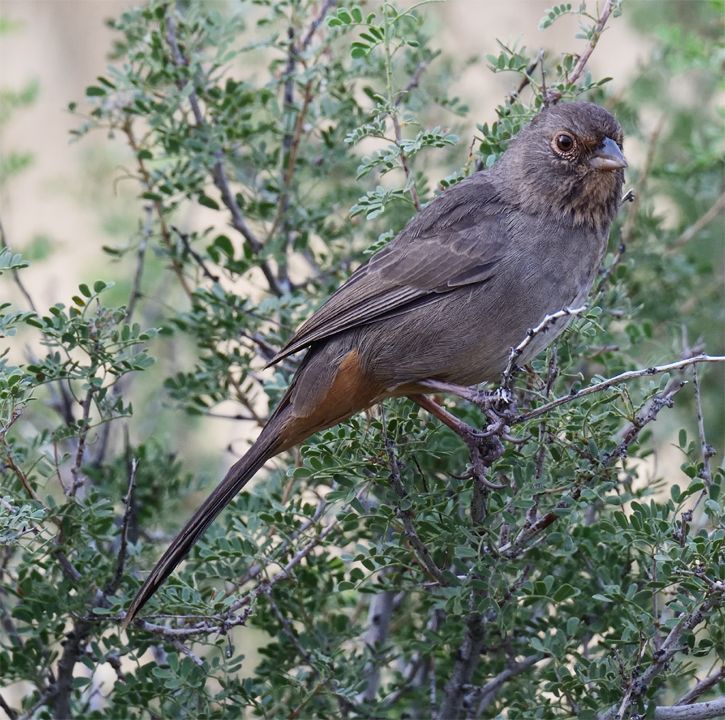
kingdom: Animalia
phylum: Chordata
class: Aves
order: Passeriformes
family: Passerellidae
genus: Melozone
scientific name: Melozone crissalis
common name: California towhee
